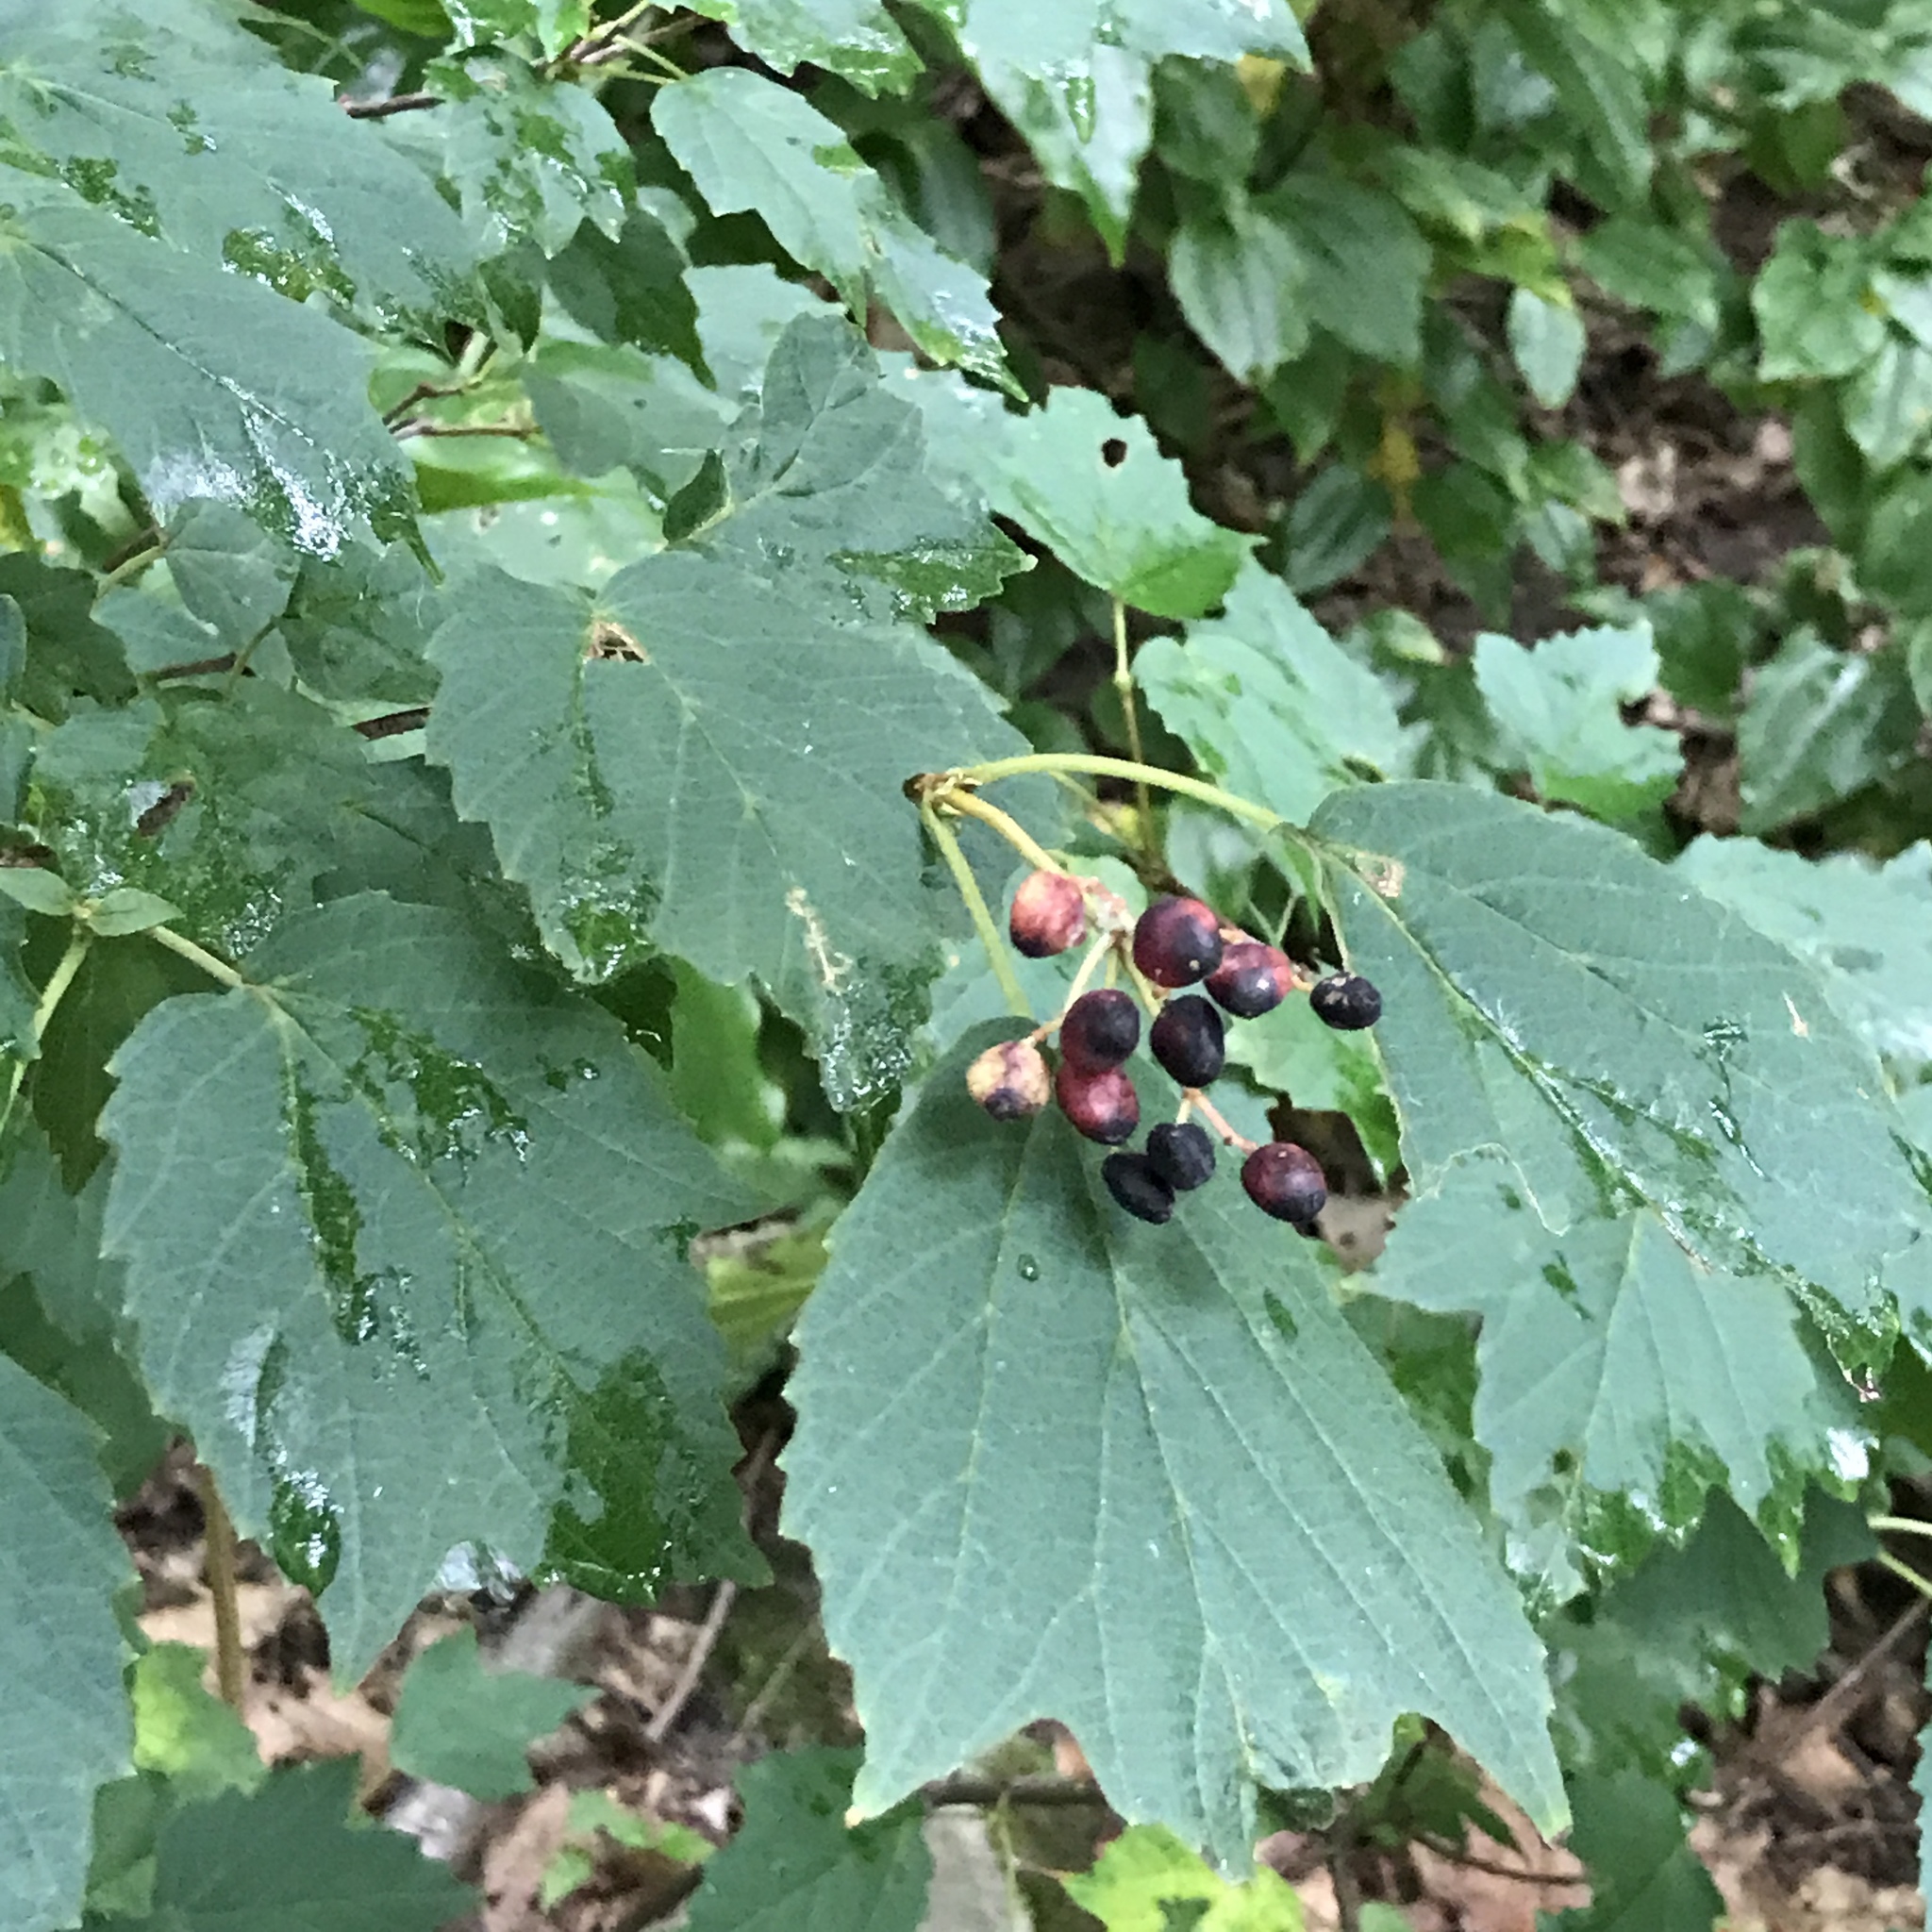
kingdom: Plantae
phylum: Tracheophyta
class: Magnoliopsida
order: Dipsacales
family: Viburnaceae
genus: Viburnum
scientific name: Viburnum acerifolium
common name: Dockmackie
